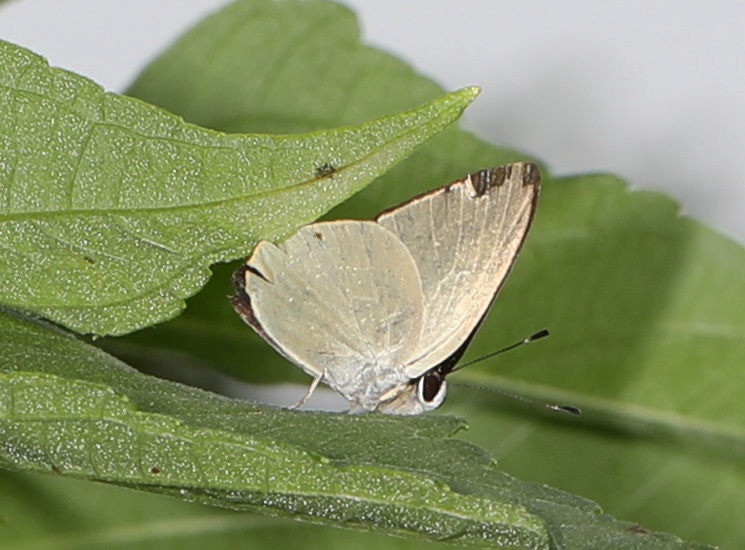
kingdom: Animalia
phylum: Arthropoda
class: Insecta
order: Lepidoptera
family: Riodinidae
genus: Pelolasia
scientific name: Pelolasia
